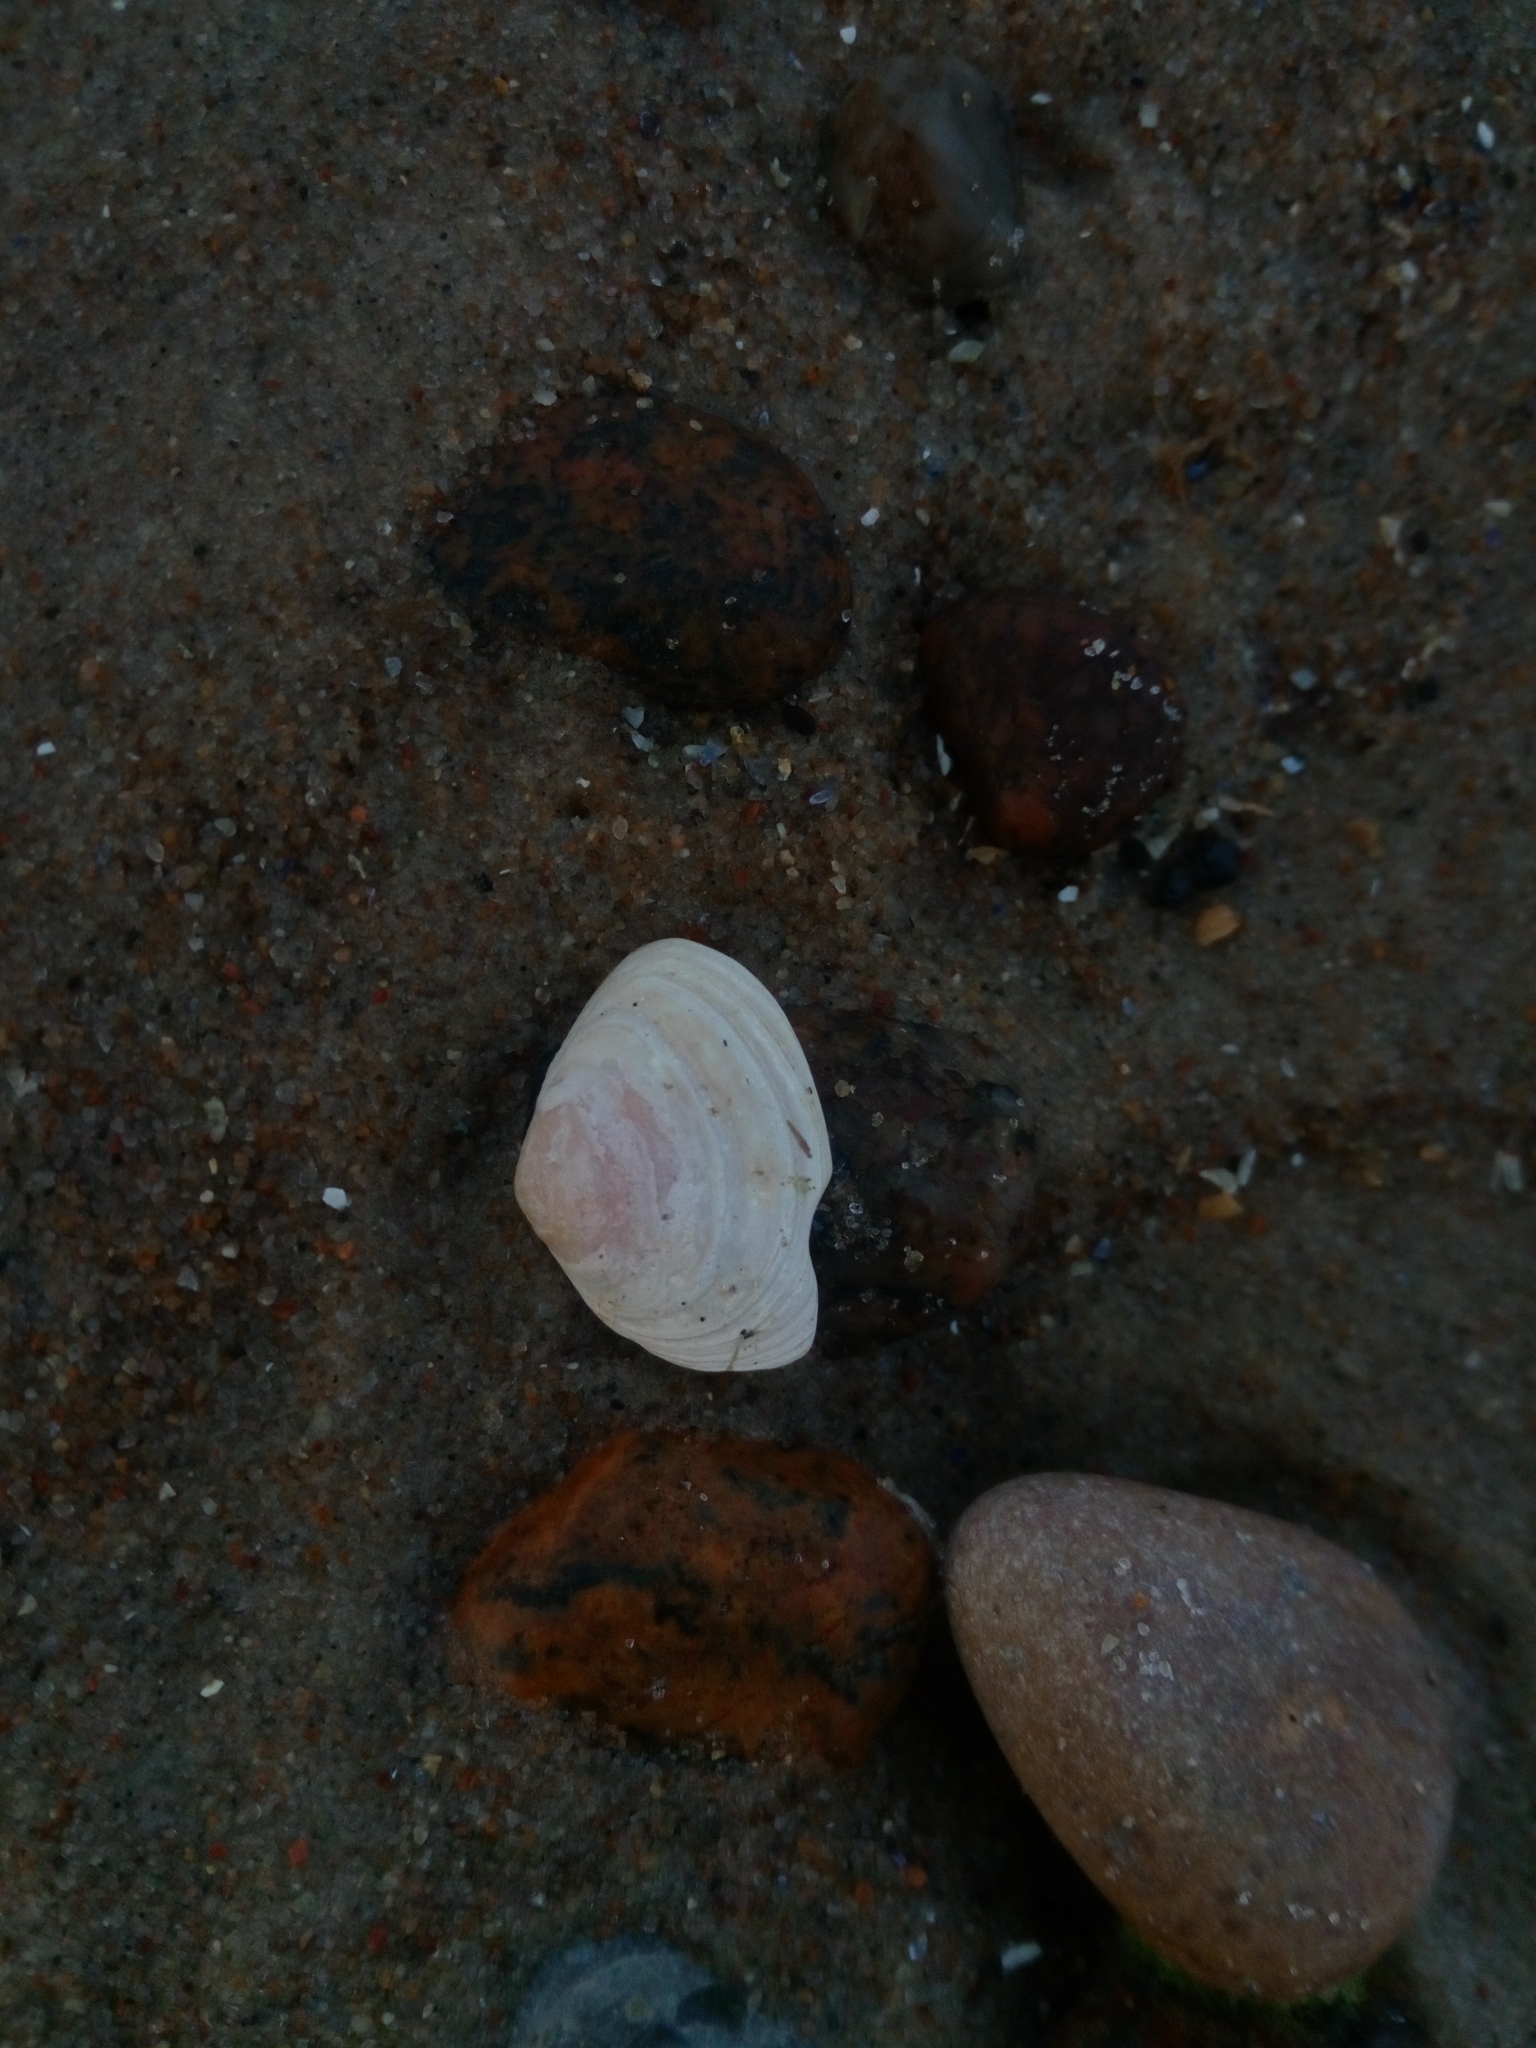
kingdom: Animalia
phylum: Mollusca
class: Bivalvia
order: Cardiida
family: Tellinidae
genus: Macoma
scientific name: Macoma balthica
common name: Baltic tellin
